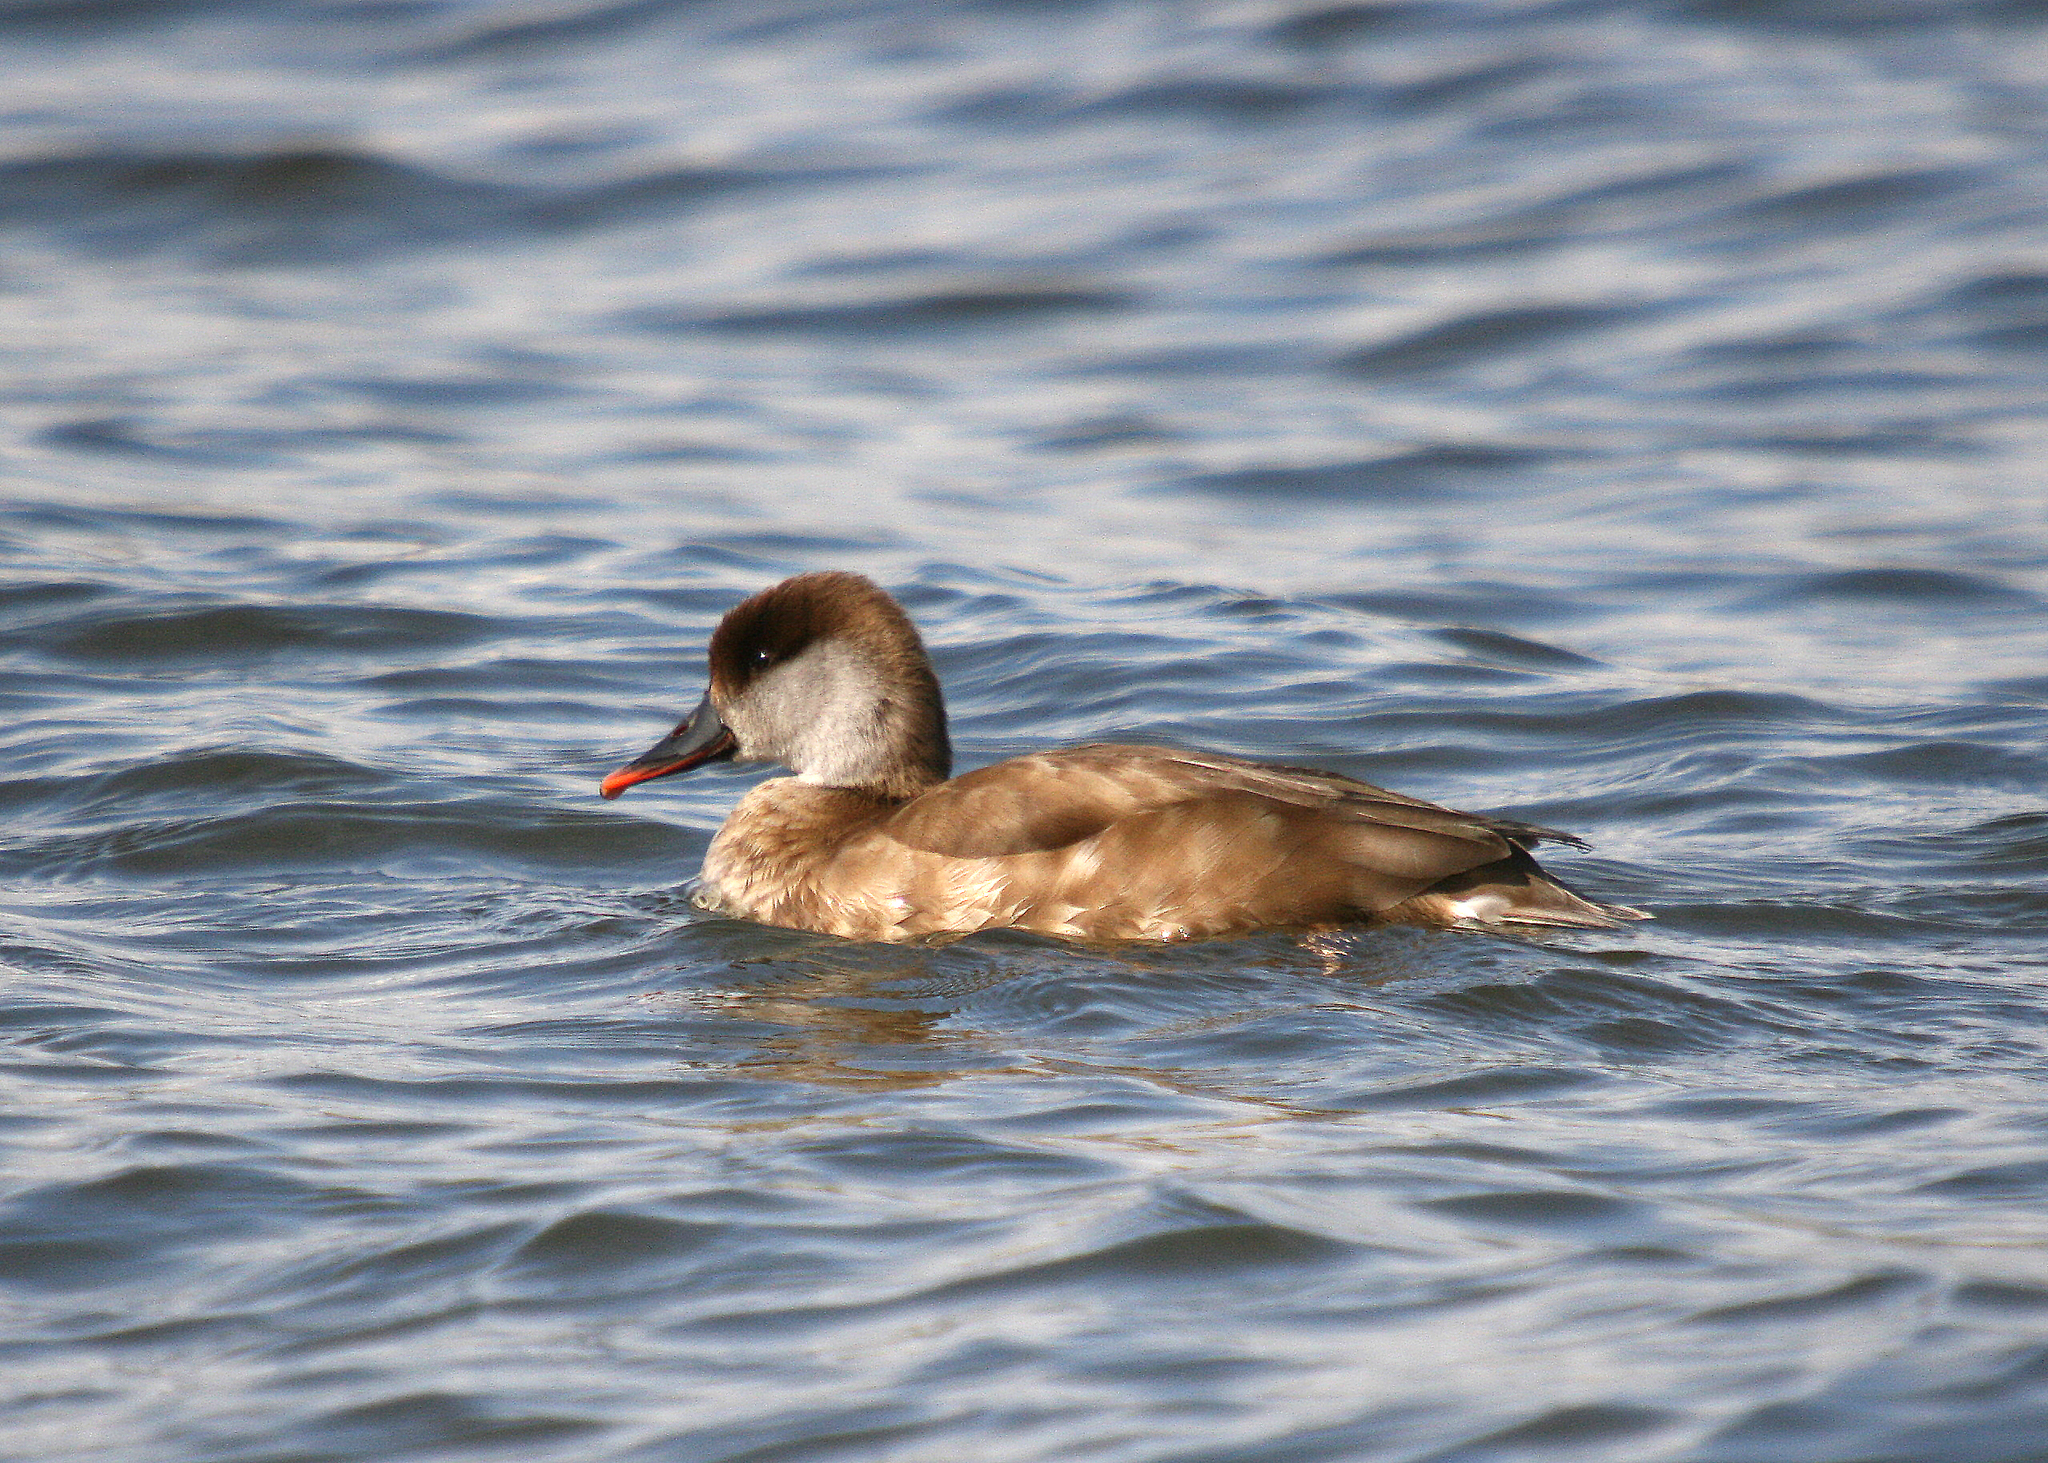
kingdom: Animalia
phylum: Chordata
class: Aves
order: Anseriformes
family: Anatidae
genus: Netta
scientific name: Netta rufina
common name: Red-crested pochard
